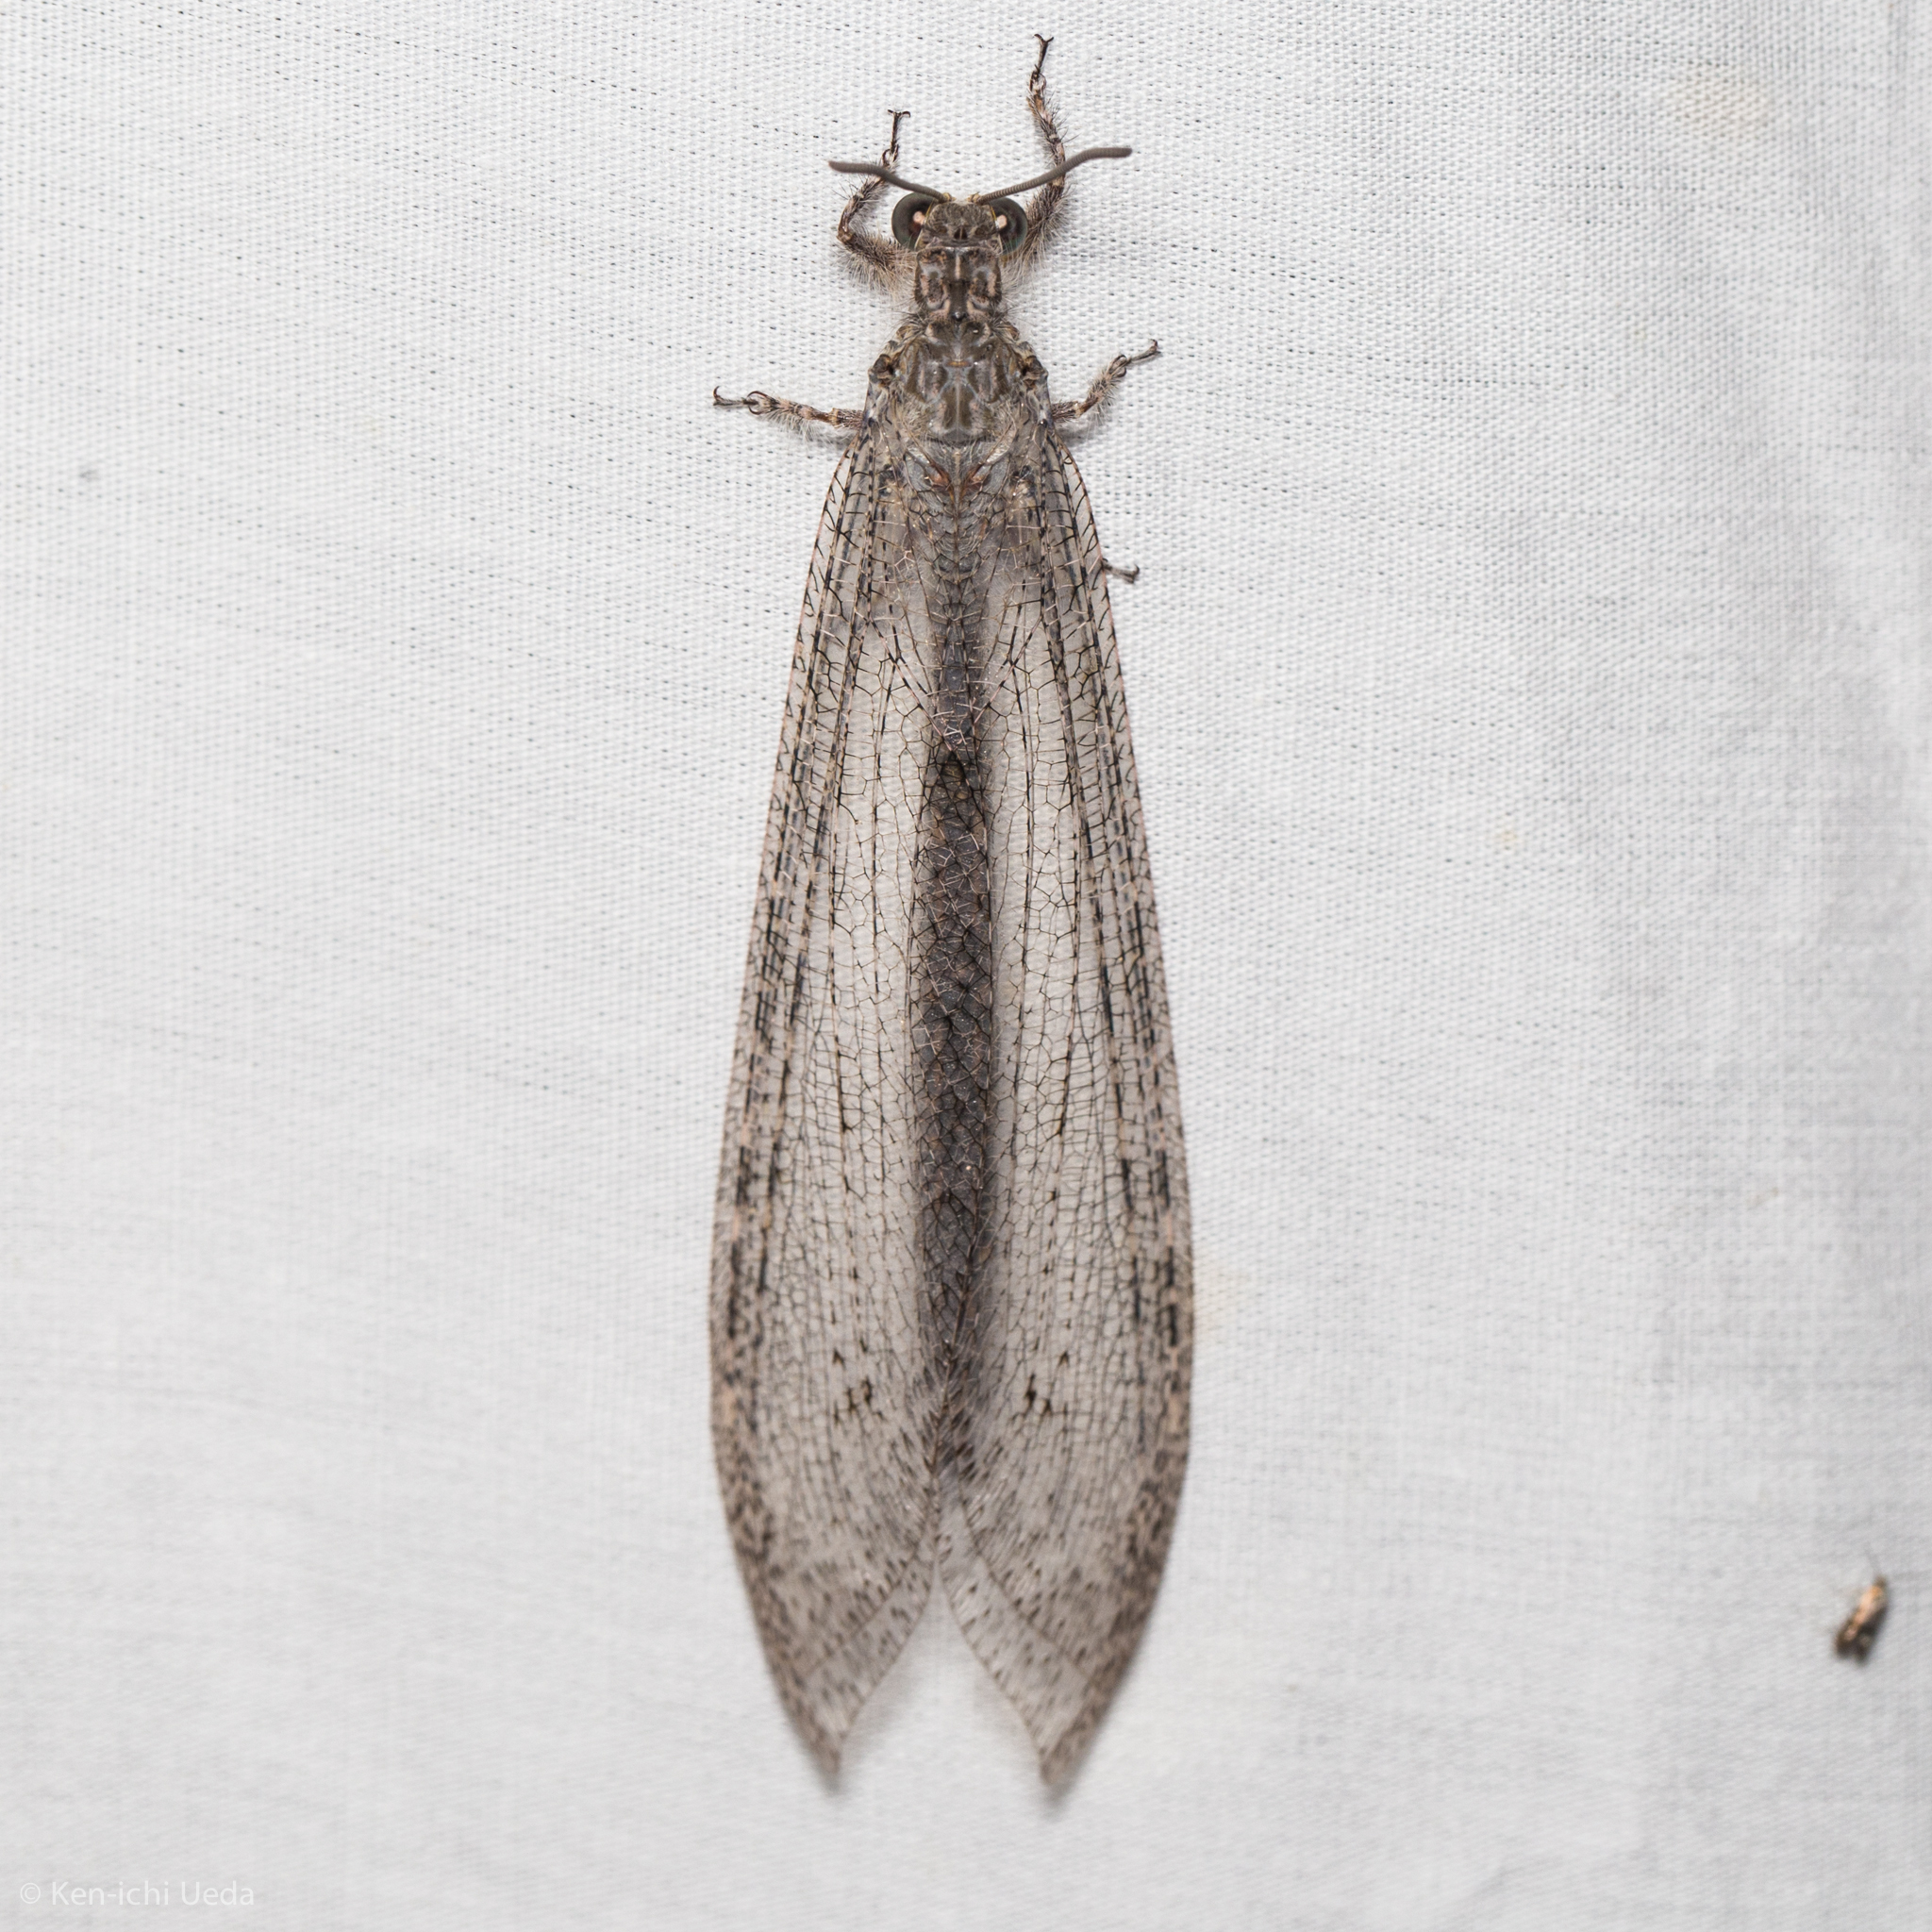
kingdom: Animalia
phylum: Arthropoda
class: Insecta
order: Neuroptera
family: Myrmeleontidae
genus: Vella
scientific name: Vella fallax
